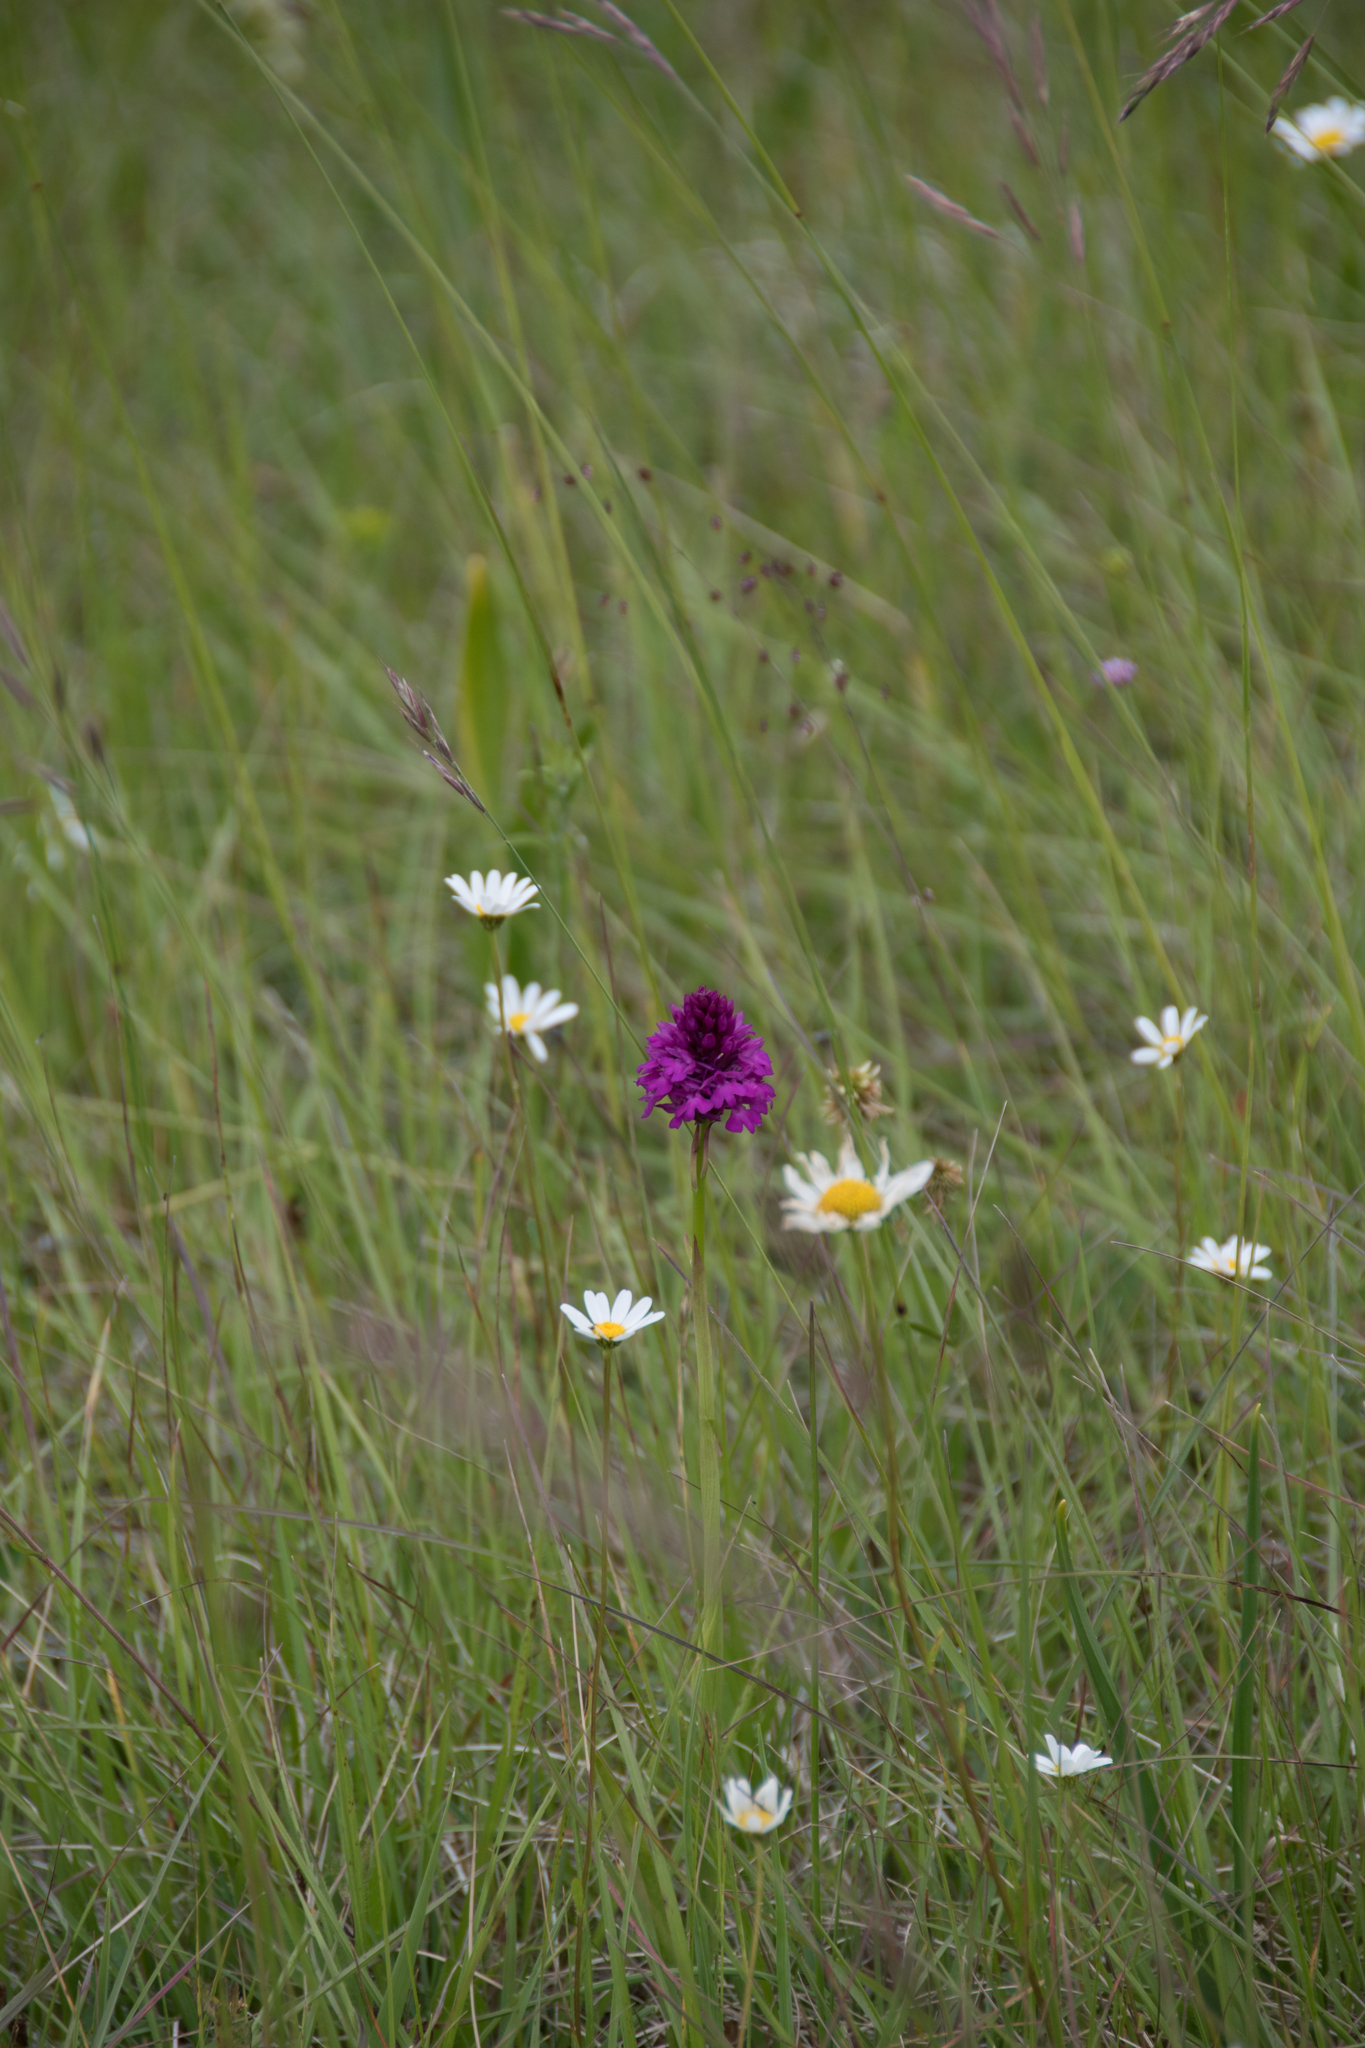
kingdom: Plantae
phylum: Tracheophyta
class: Liliopsida
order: Asparagales
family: Orchidaceae
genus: Anacamptis
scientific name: Anacamptis pyramidalis
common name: Pyramidal orchid
